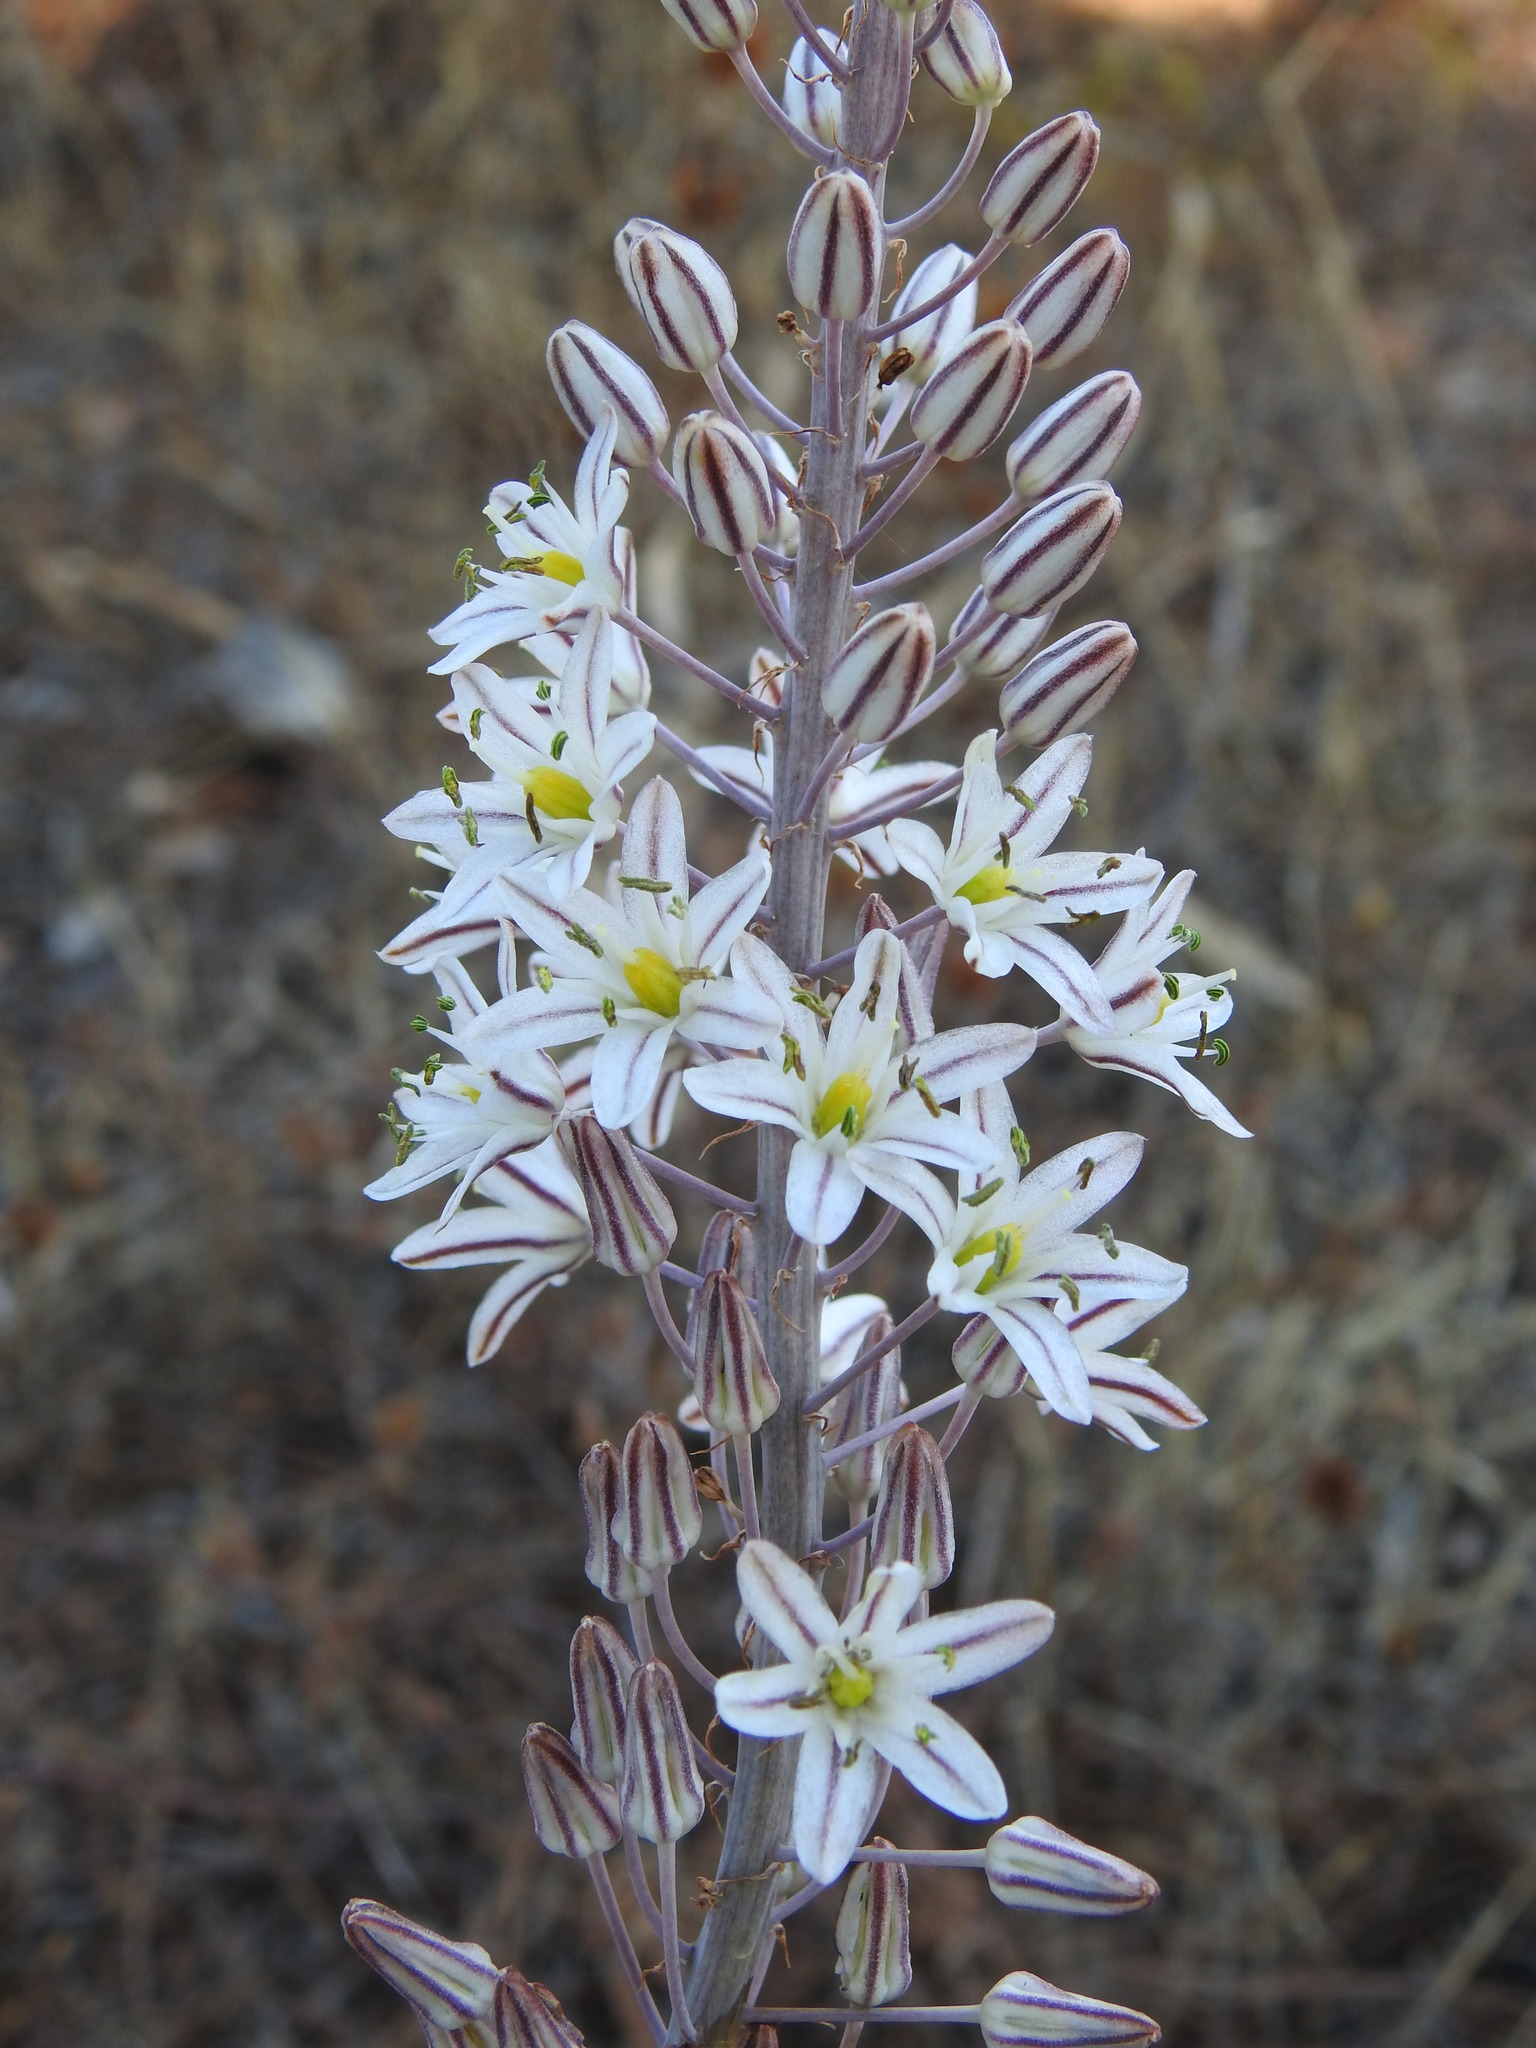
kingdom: Plantae
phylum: Tracheophyta
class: Liliopsida
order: Asparagales
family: Asparagaceae
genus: Drimia
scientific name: Drimia maritima
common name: Maritime squill
